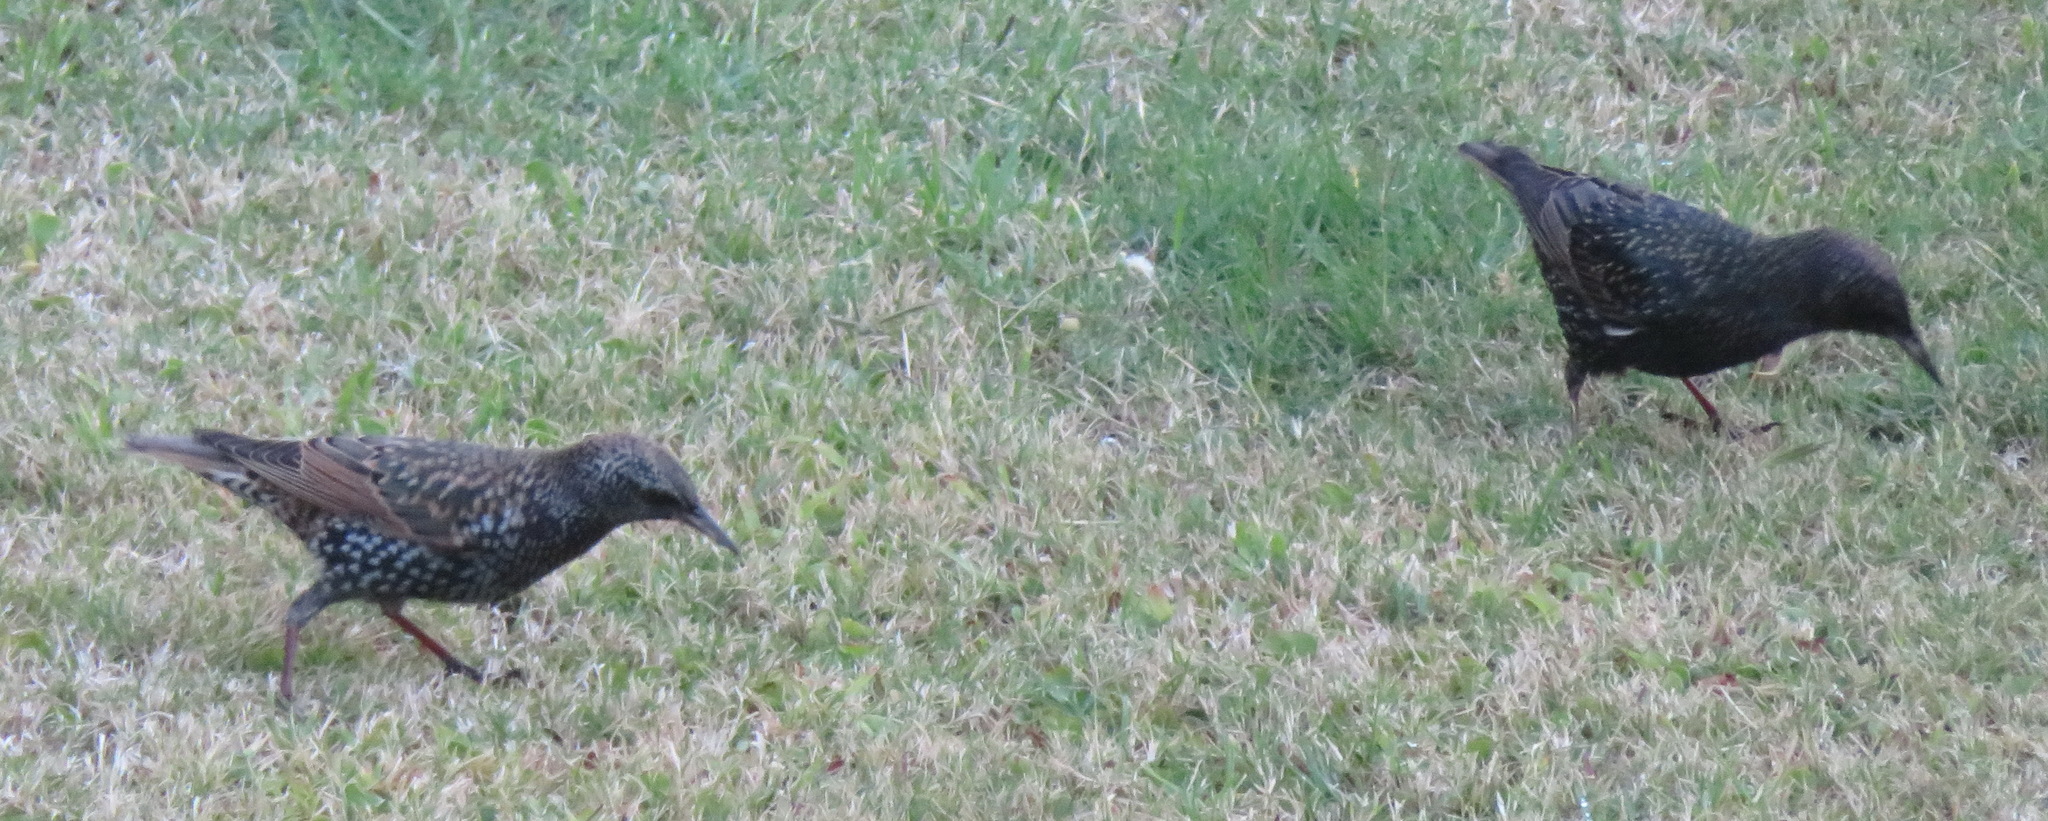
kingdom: Animalia
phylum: Chordata
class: Aves
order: Passeriformes
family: Sturnidae
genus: Sturnus
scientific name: Sturnus vulgaris
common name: Common starling
